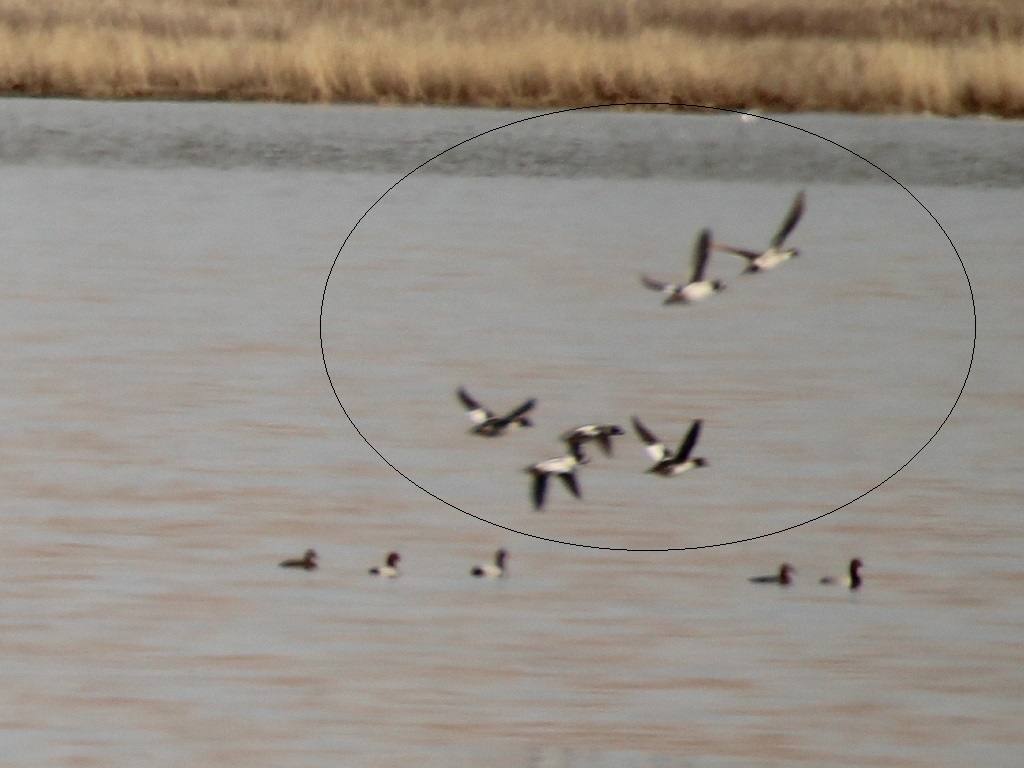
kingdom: Animalia
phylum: Chordata
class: Aves
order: Anseriformes
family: Anatidae
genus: Bucephala
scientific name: Bucephala clangula
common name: Common goldeneye
